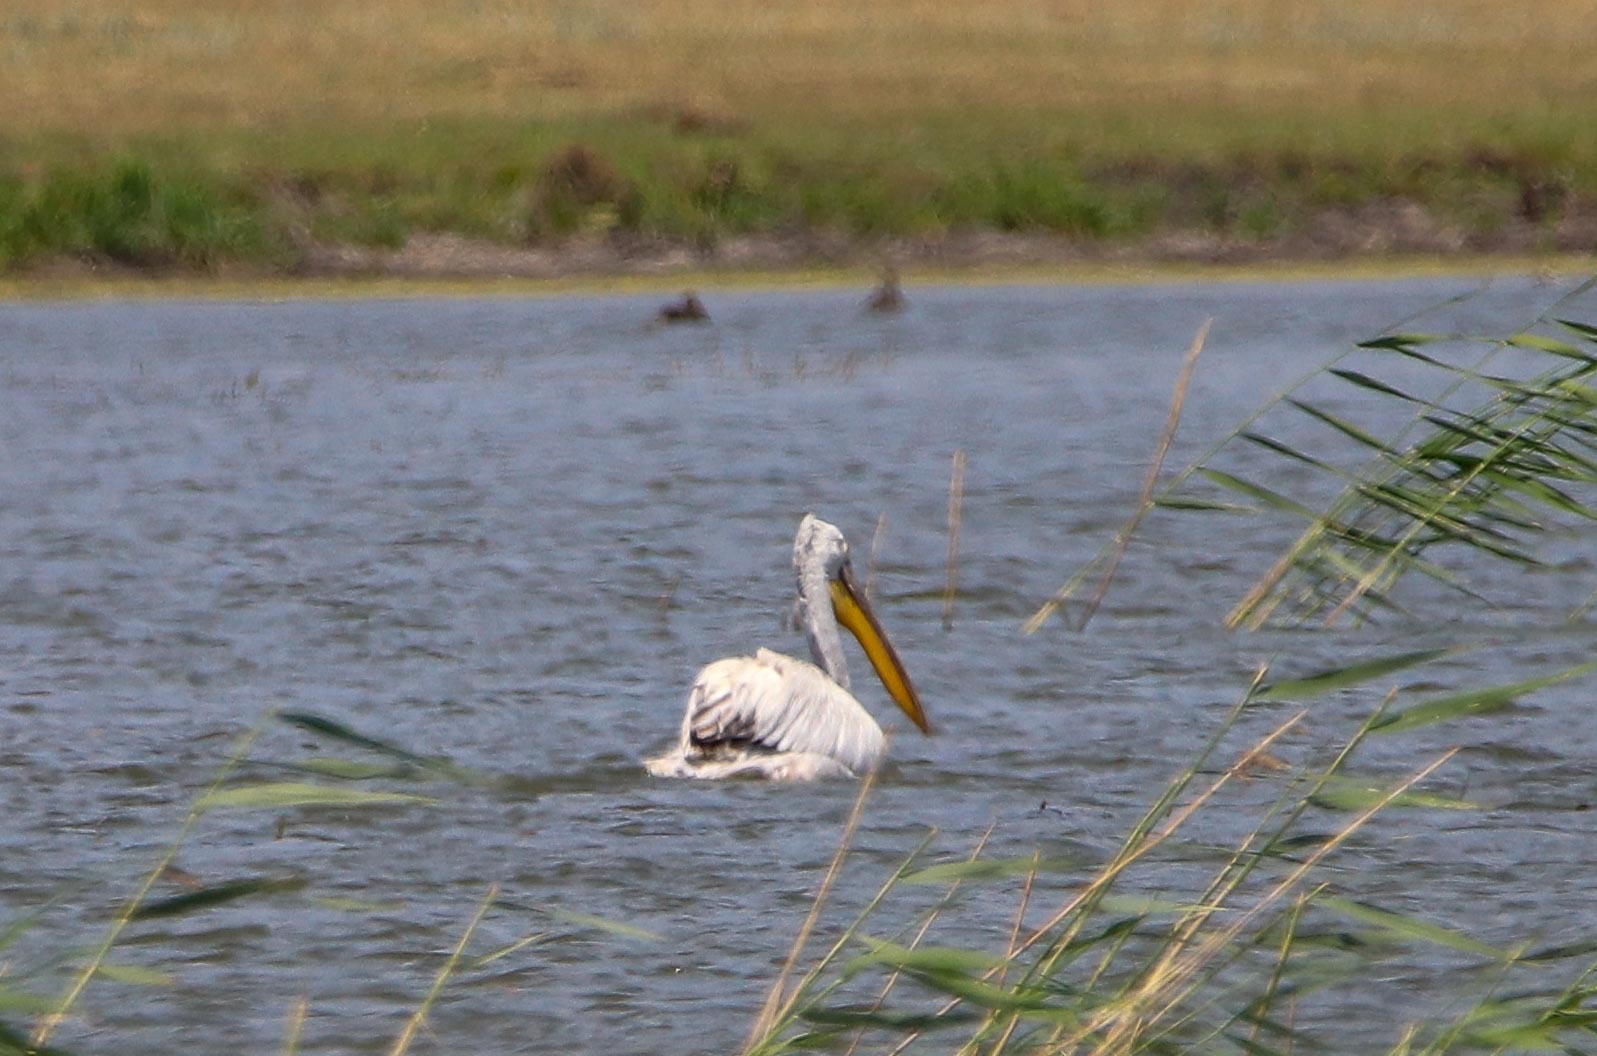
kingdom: Animalia
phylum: Chordata
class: Aves
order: Pelecaniformes
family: Pelecanidae
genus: Pelecanus
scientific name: Pelecanus crispus
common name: Dalmatian pelican
